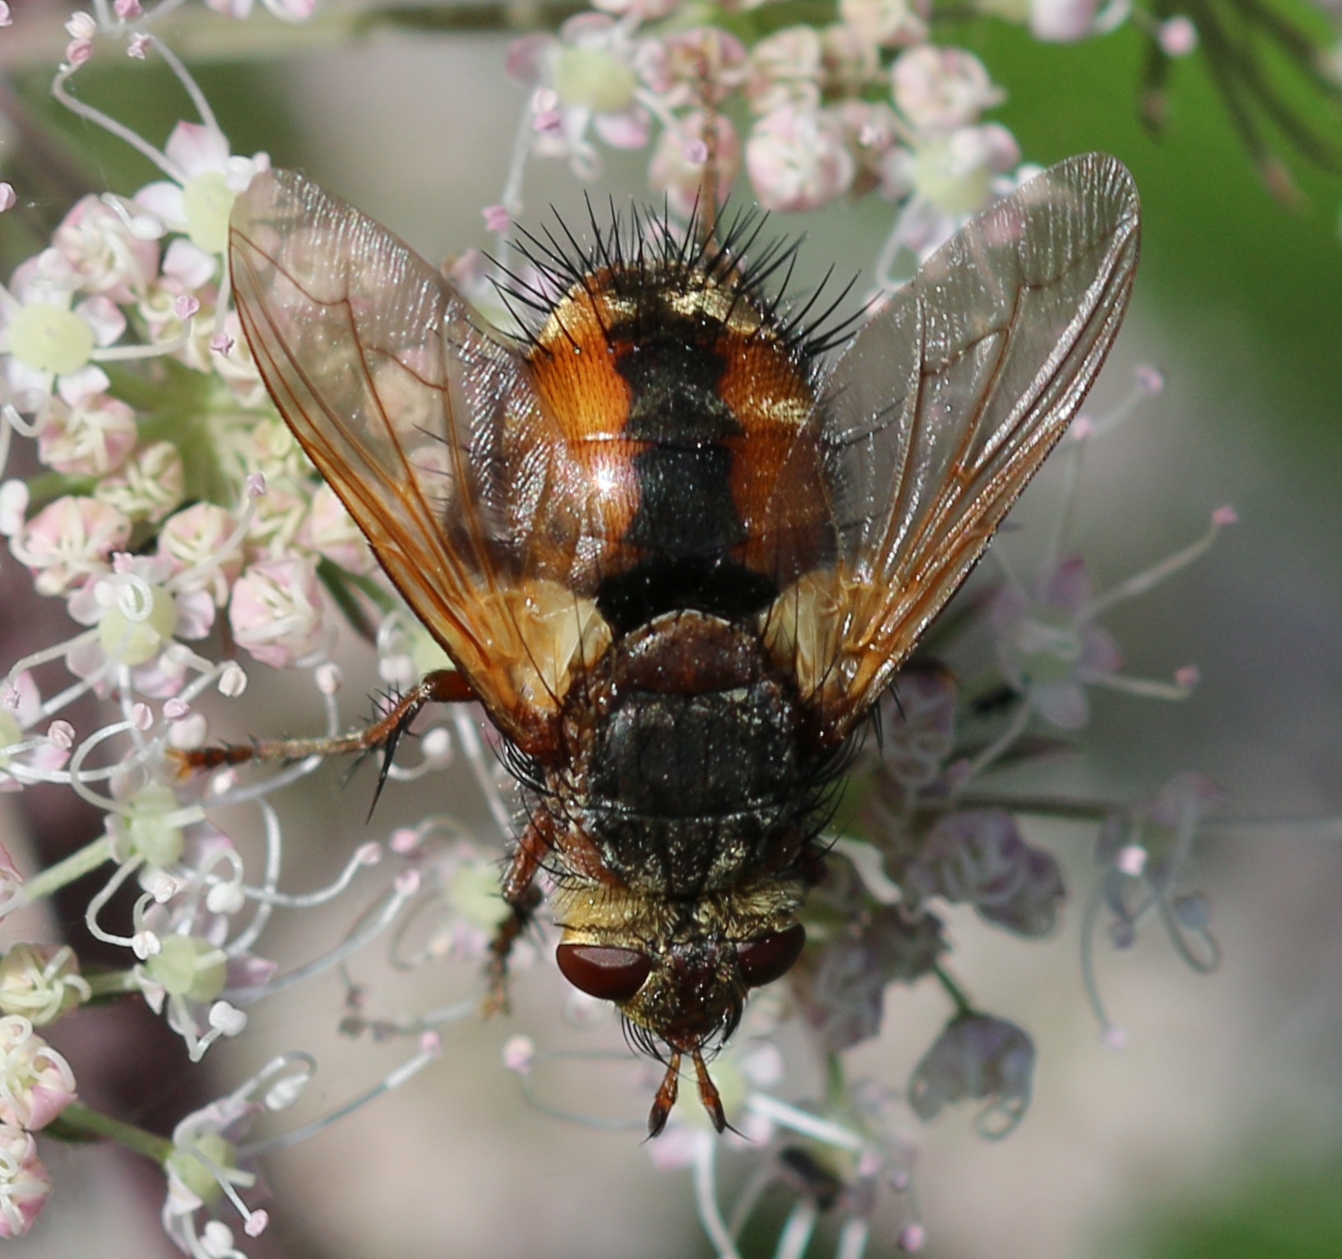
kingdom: Animalia
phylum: Arthropoda
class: Insecta
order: Diptera
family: Tachinidae
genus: Tachina
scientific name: Tachina fera
